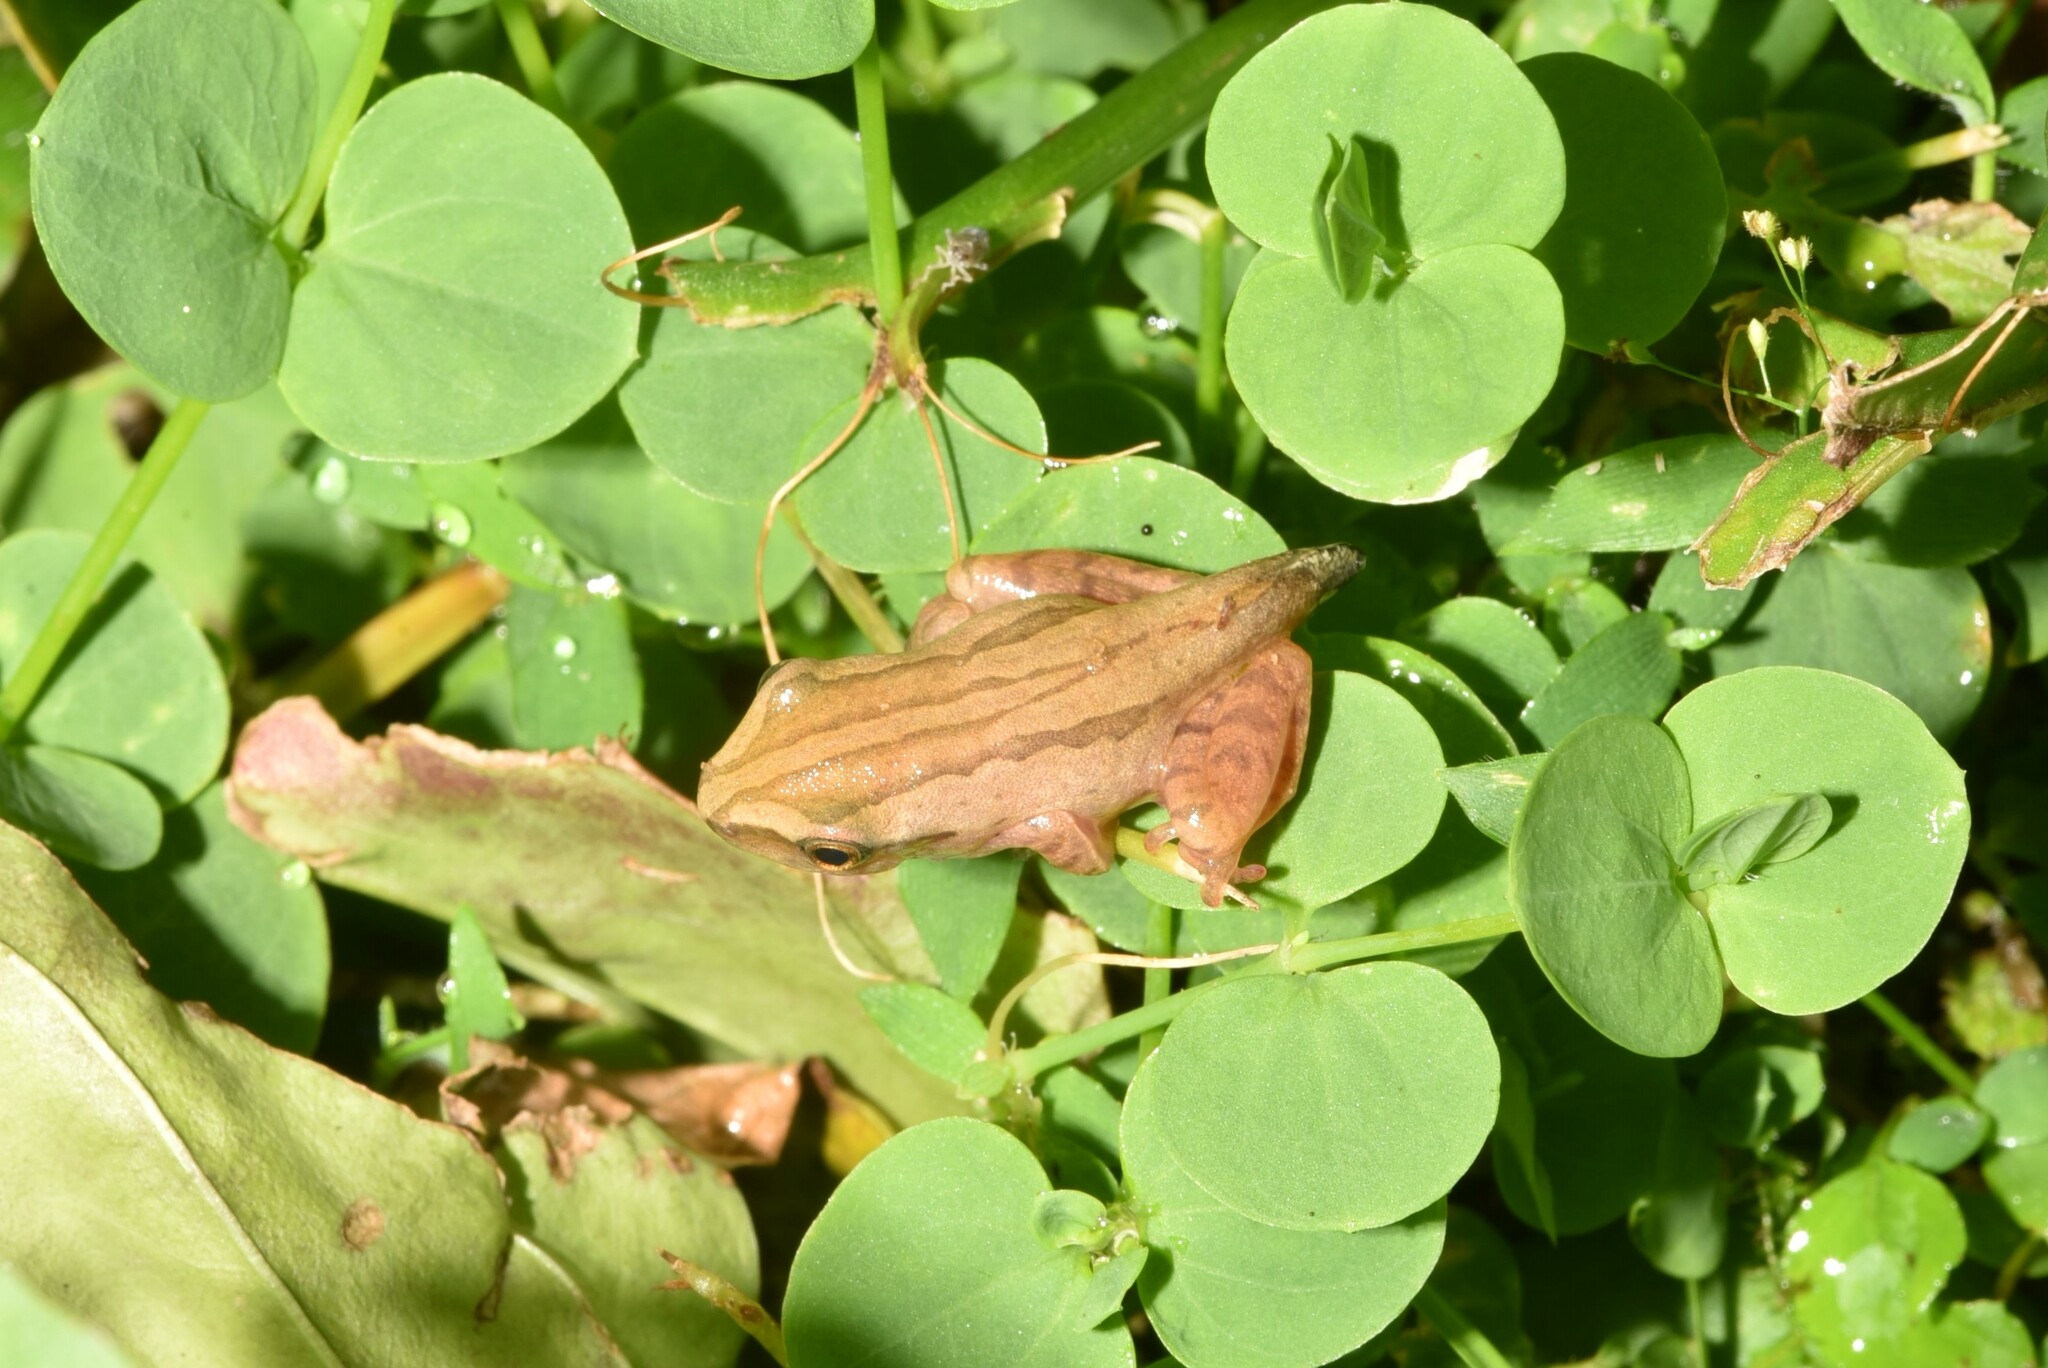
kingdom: Animalia
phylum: Chordata
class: Amphibia
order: Anura
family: Rhacophoridae
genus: Polypedates
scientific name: Polypedates braueri
